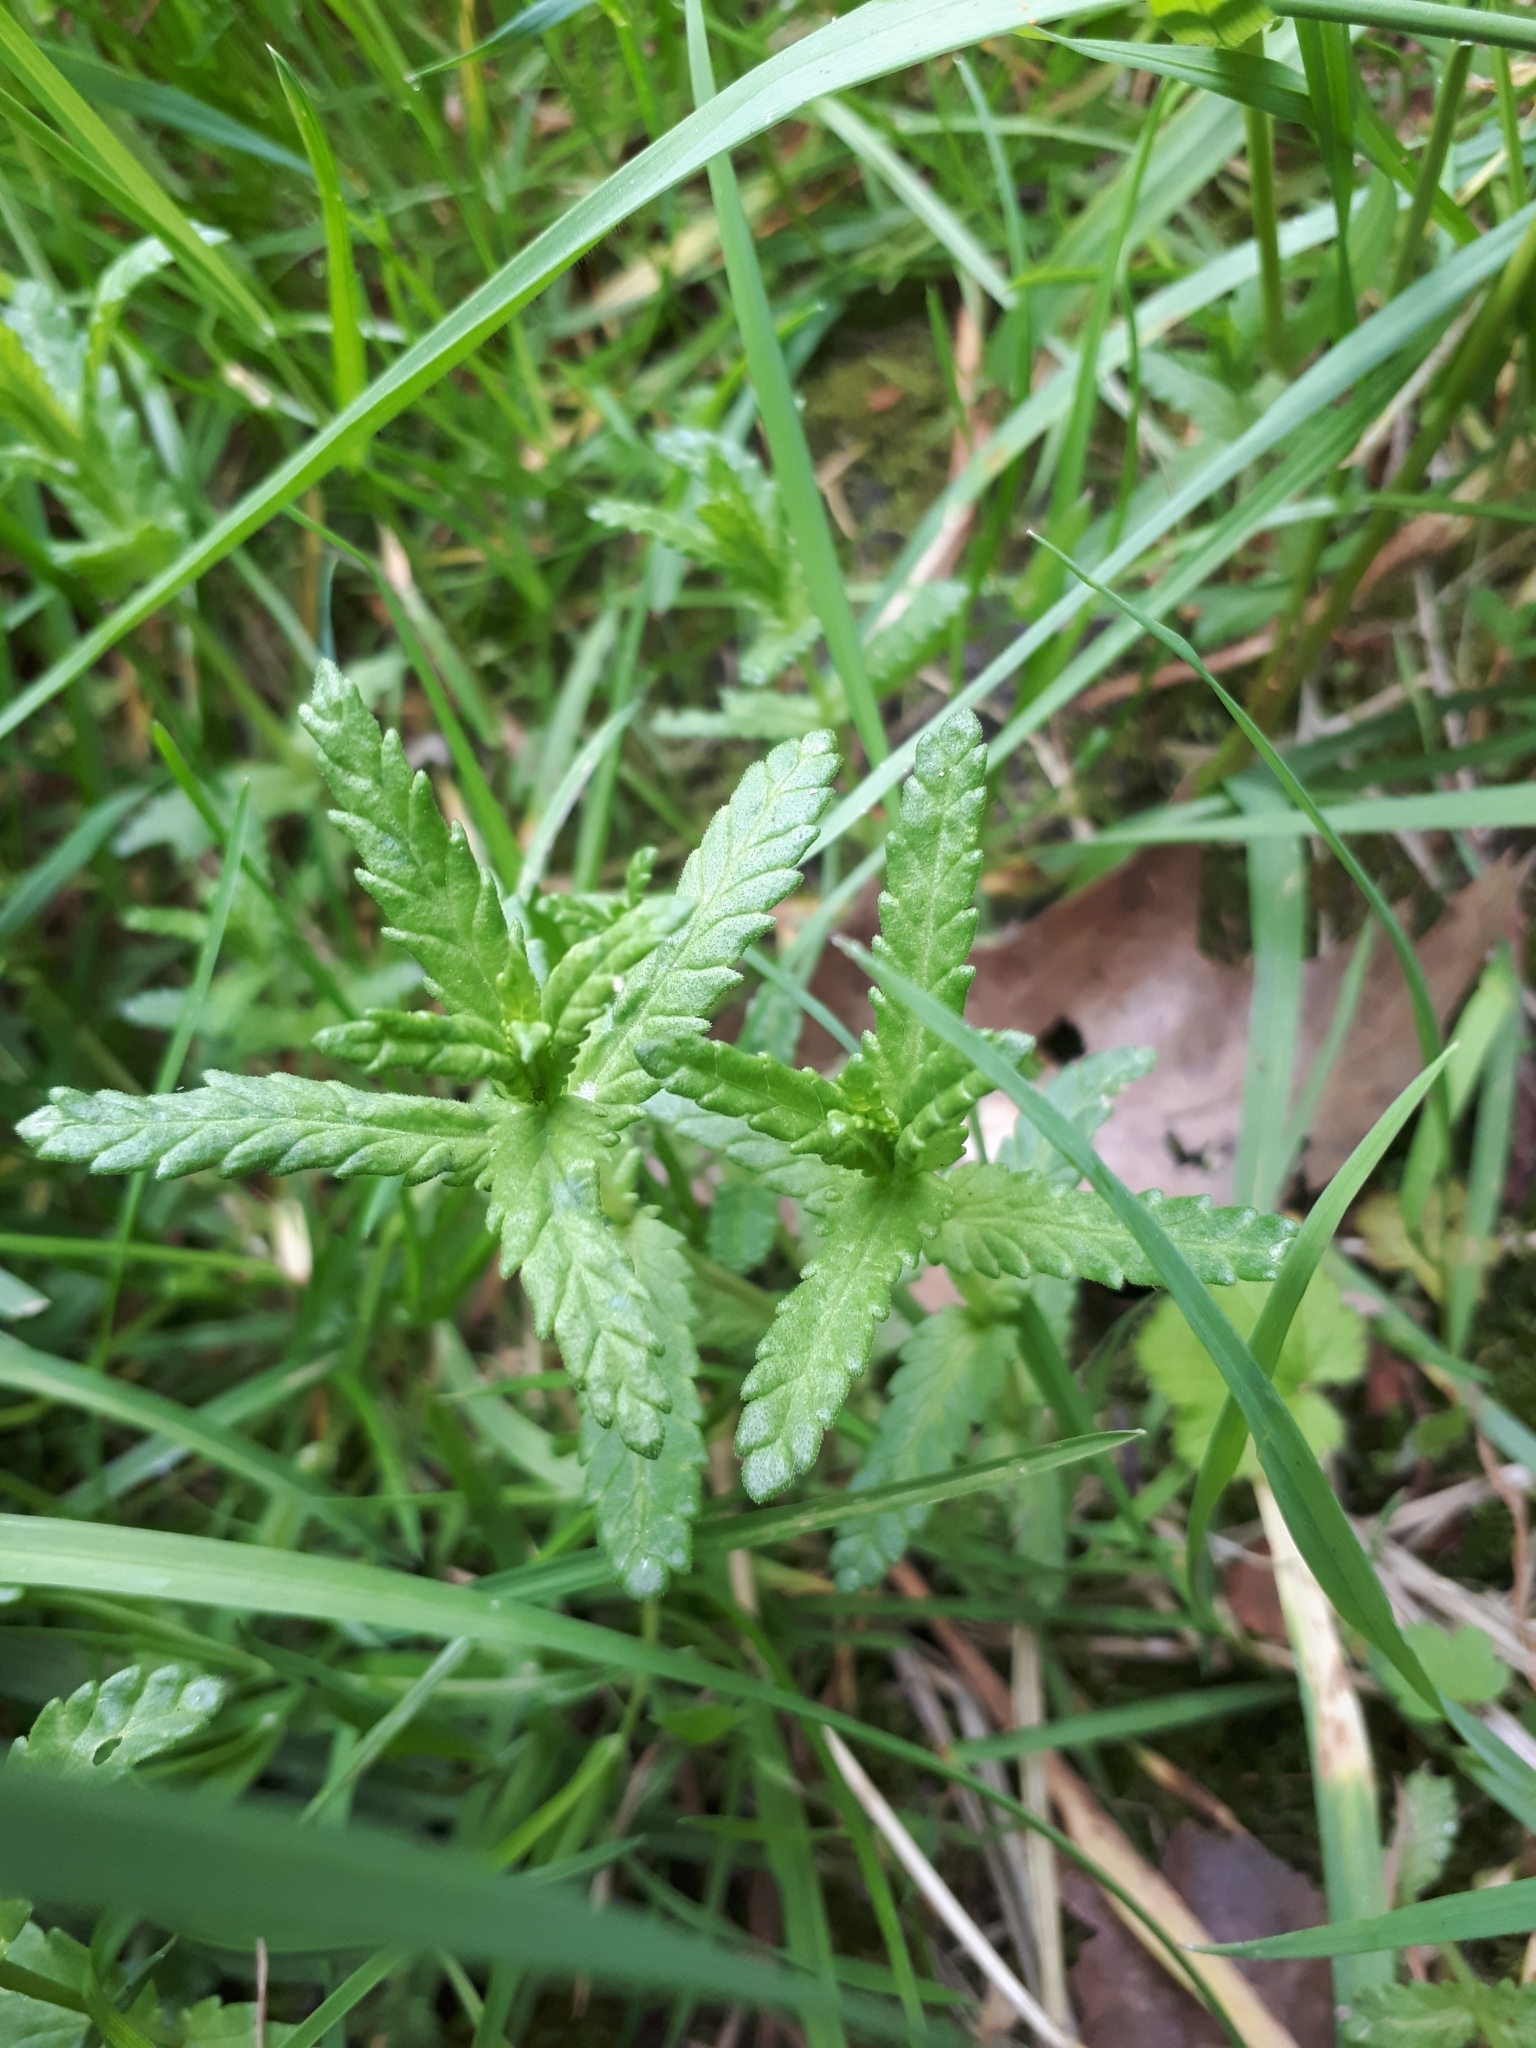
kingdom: Plantae
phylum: Tracheophyta
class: Magnoliopsida
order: Lamiales
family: Orobanchaceae
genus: Rhinanthus
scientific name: Rhinanthus minor
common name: Yellow-rattle
